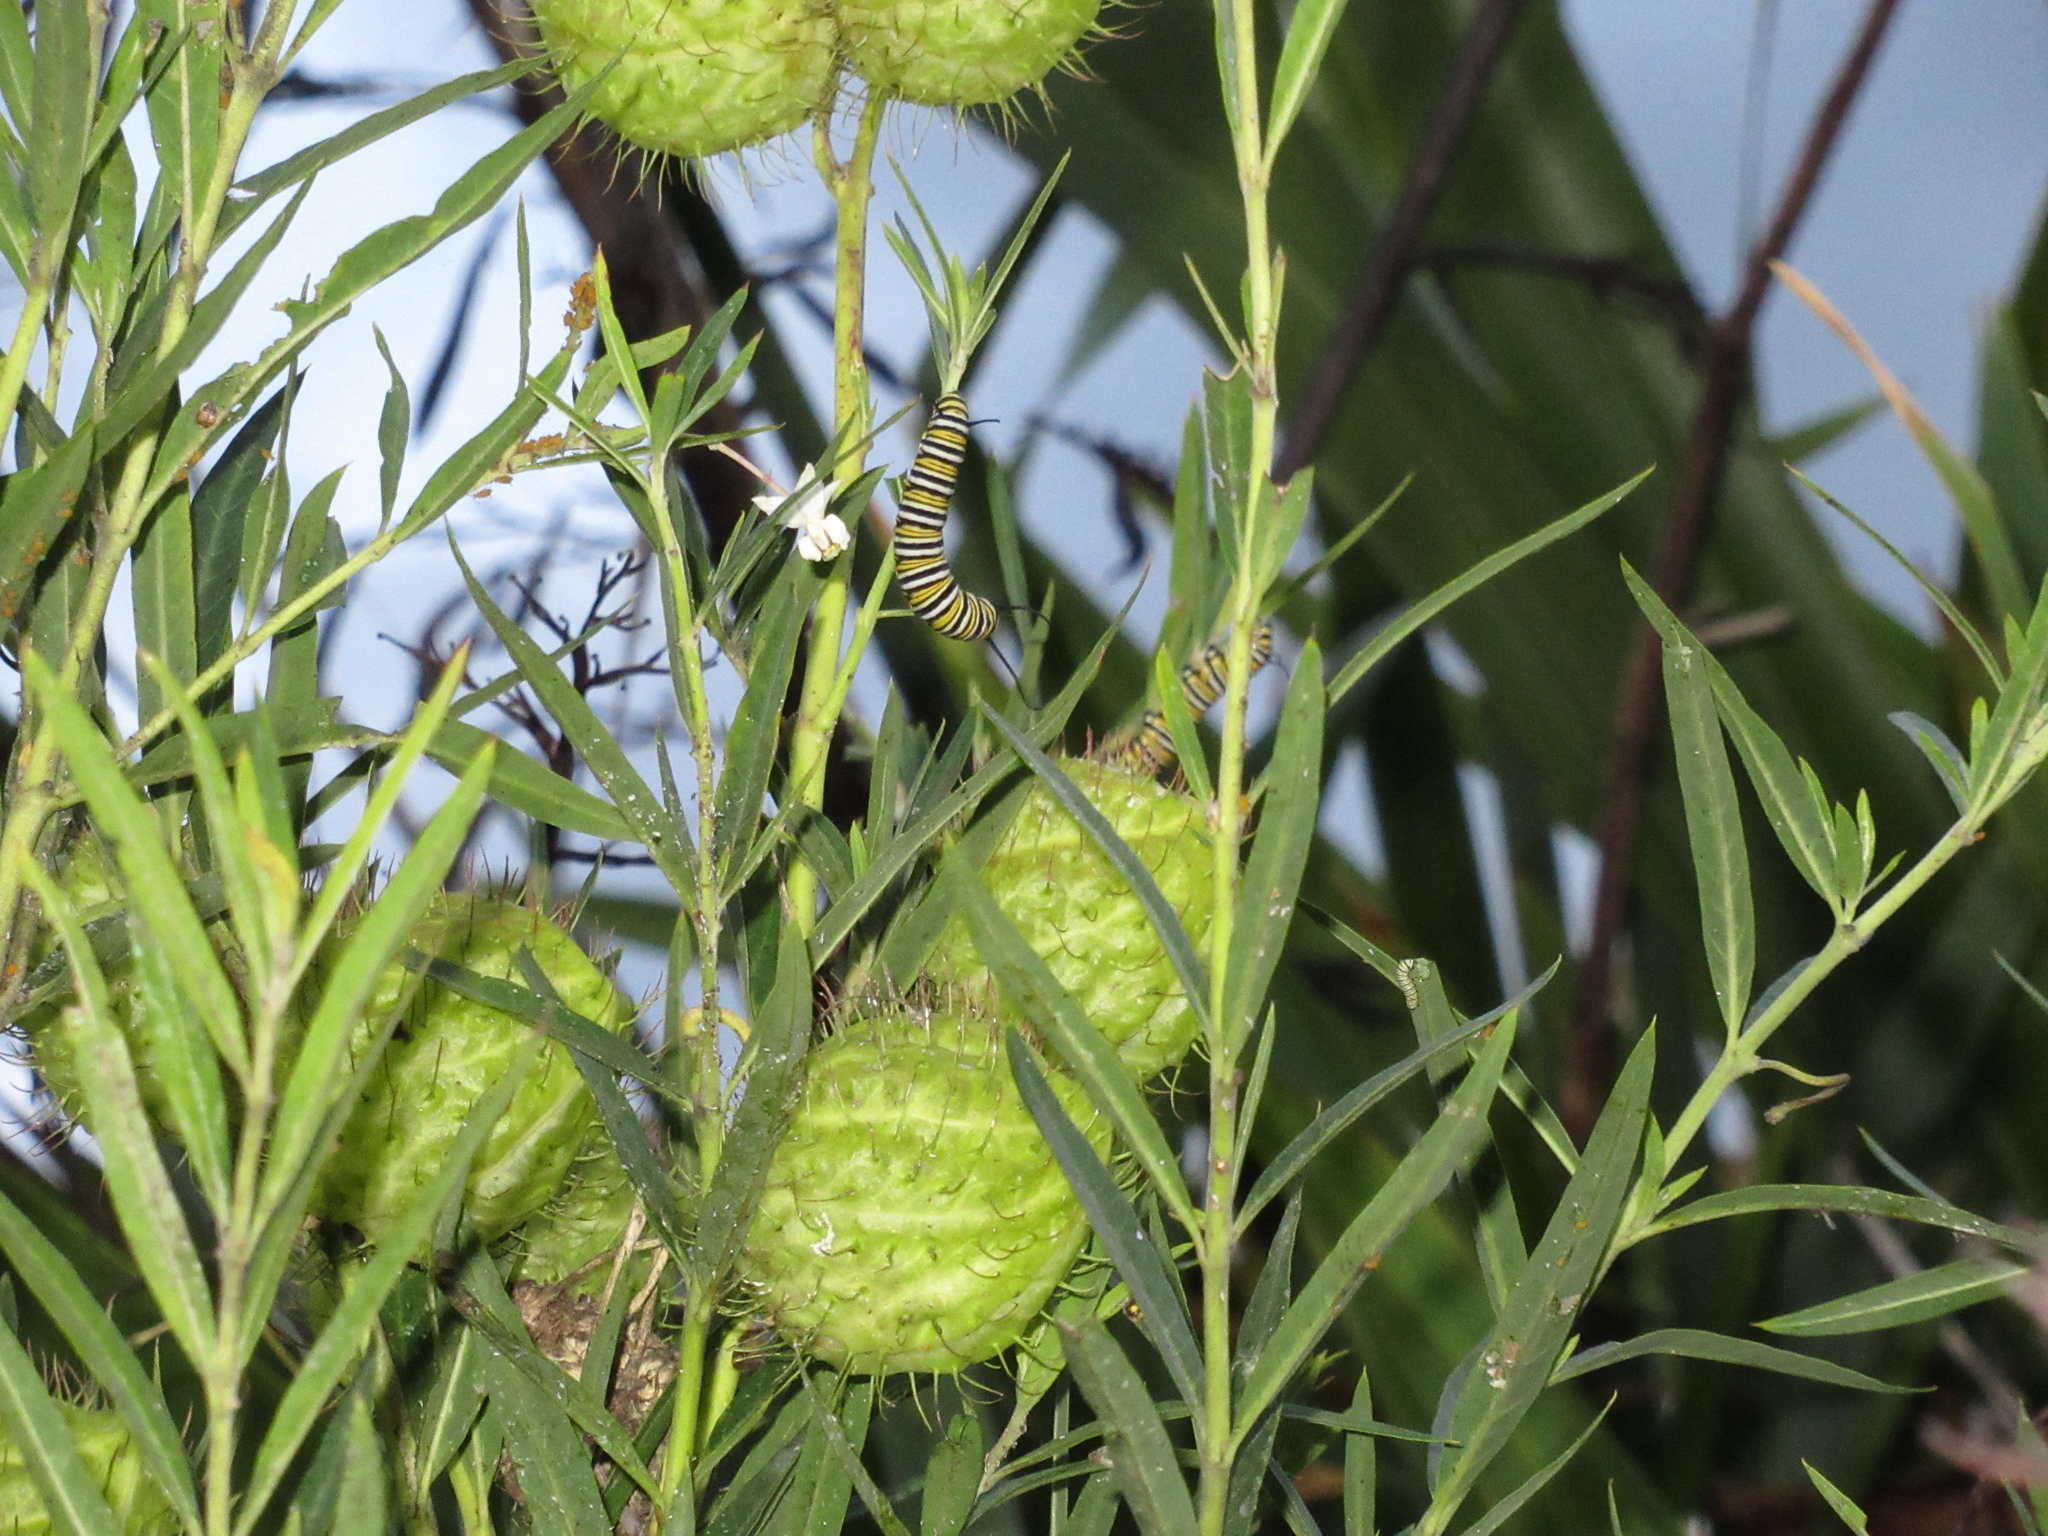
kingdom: Animalia
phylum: Arthropoda
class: Insecta
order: Lepidoptera
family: Nymphalidae
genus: Danaus
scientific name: Danaus plexippus
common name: Monarch
